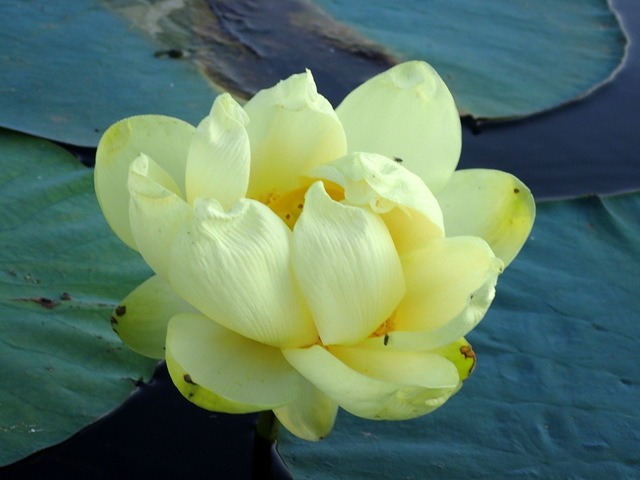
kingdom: Plantae
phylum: Tracheophyta
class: Magnoliopsida
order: Proteales
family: Nelumbonaceae
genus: Nelumbo
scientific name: Nelumbo lutea
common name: American lotus
